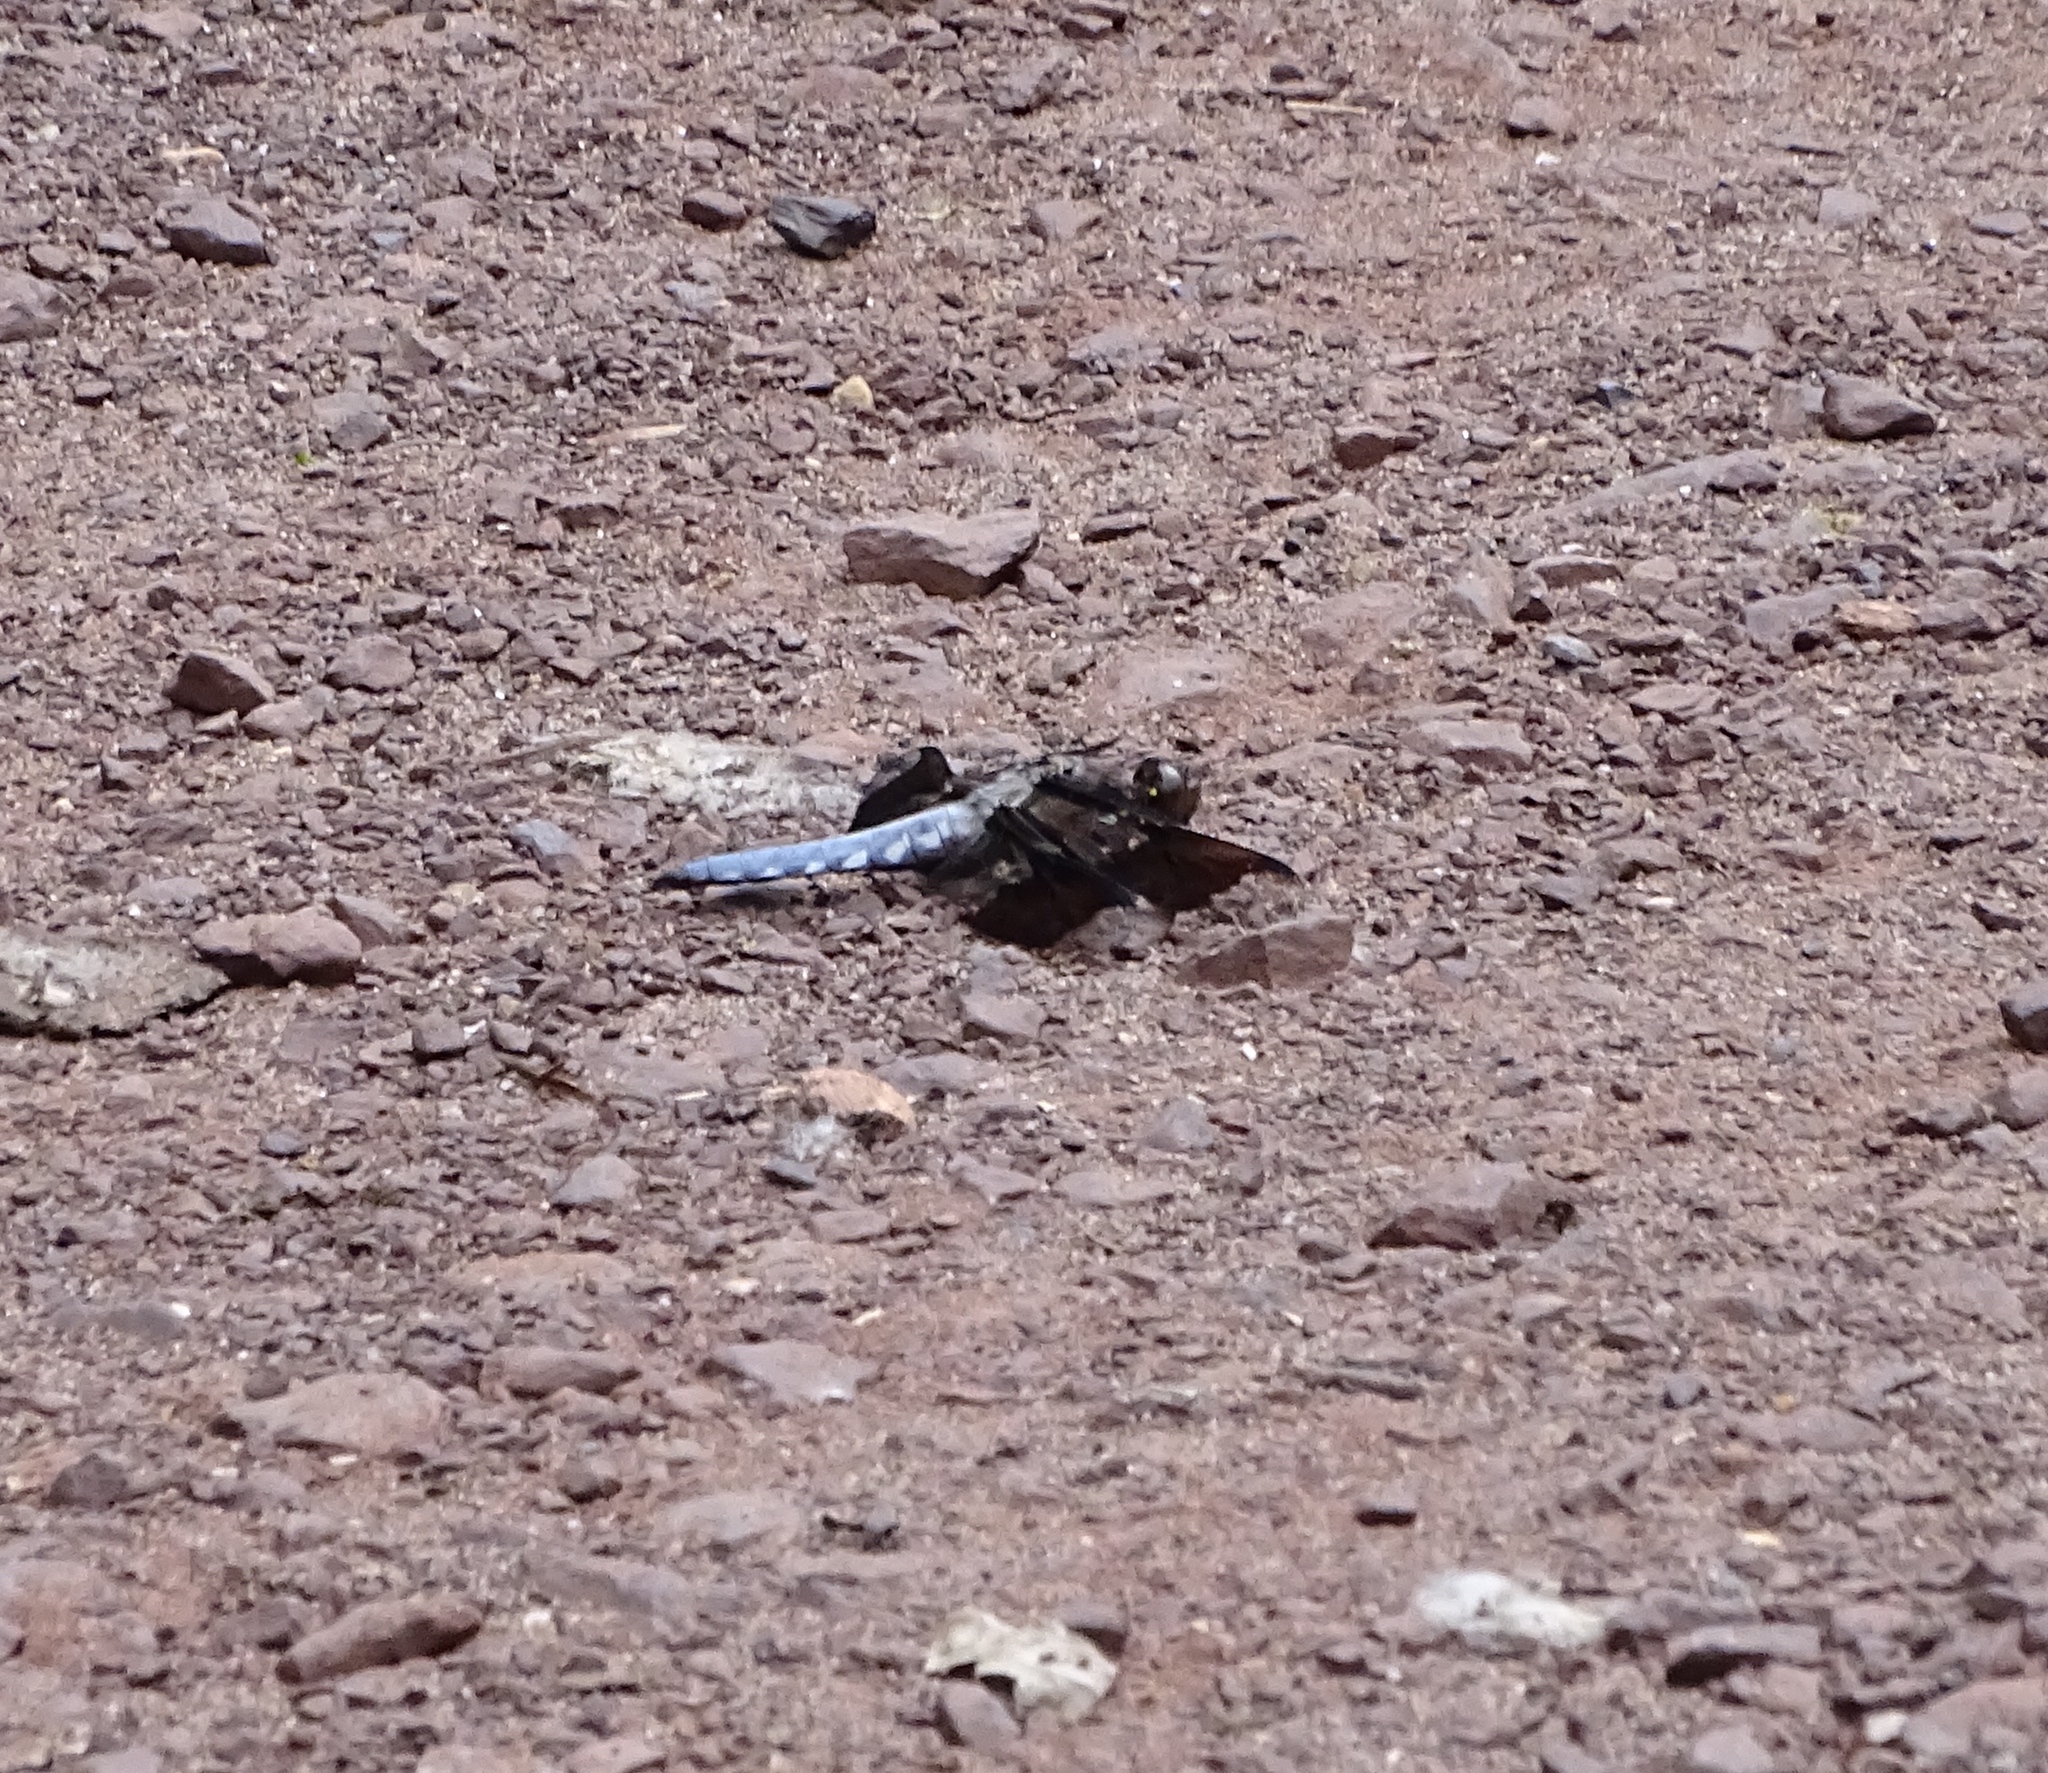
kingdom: Animalia
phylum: Arthropoda
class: Insecta
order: Odonata
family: Libellulidae
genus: Plathemis
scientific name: Plathemis lydia
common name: Common whitetail
